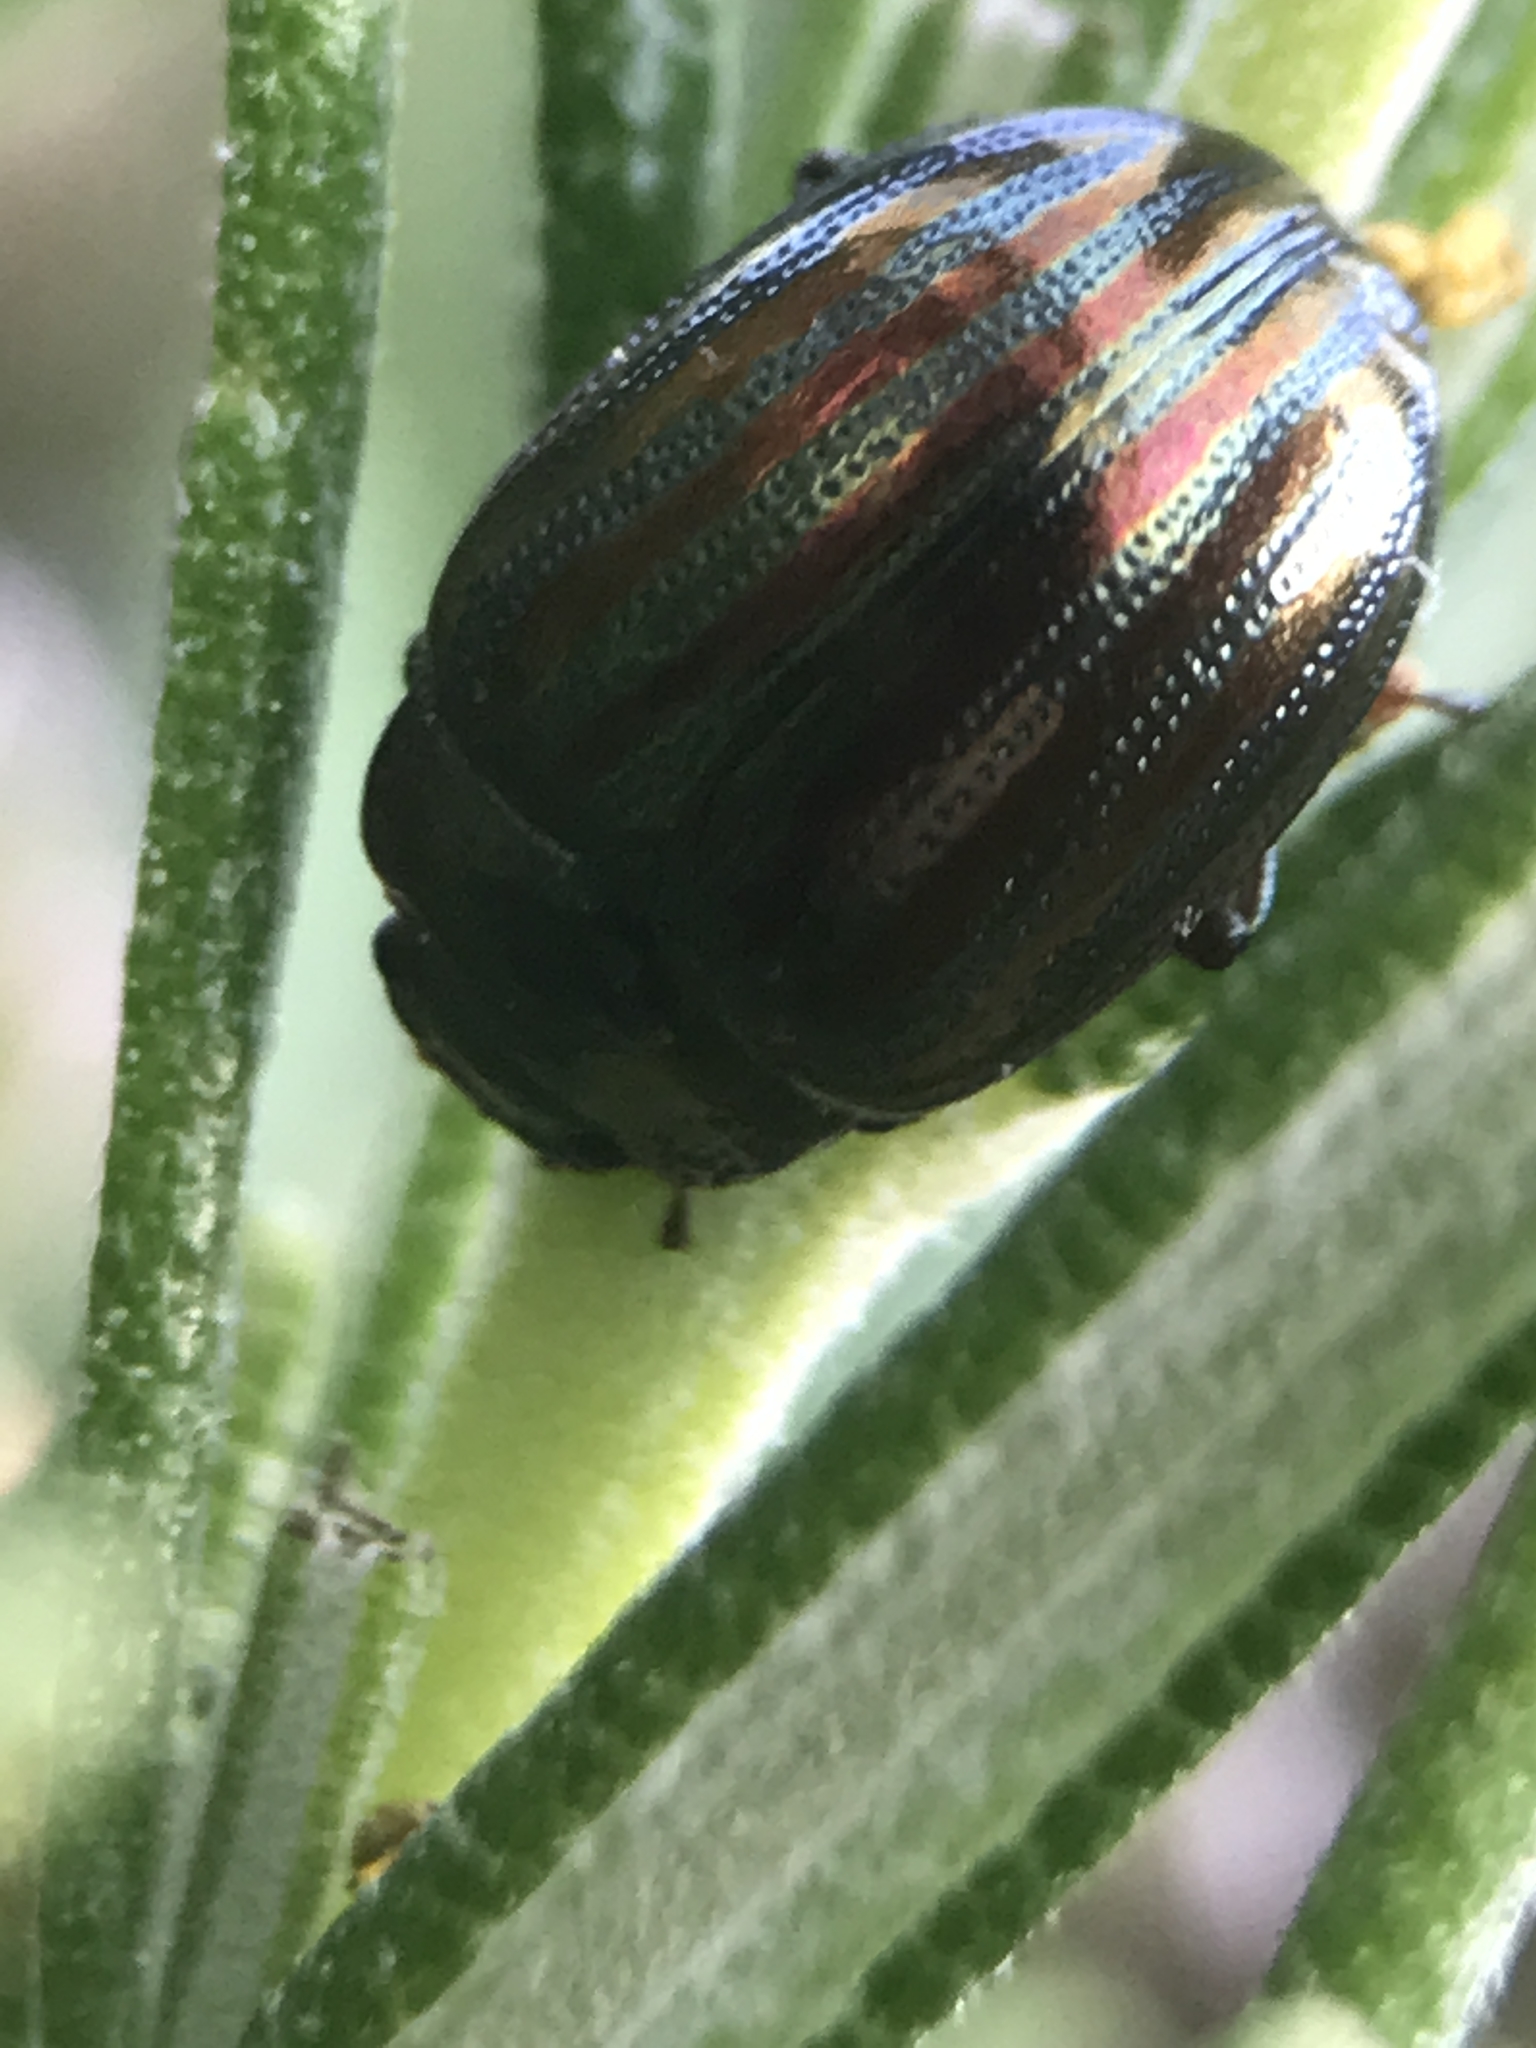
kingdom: Animalia
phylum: Arthropoda
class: Insecta
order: Coleoptera
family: Chrysomelidae
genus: Chrysolina
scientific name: Chrysolina americana
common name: Rosemary beetle
